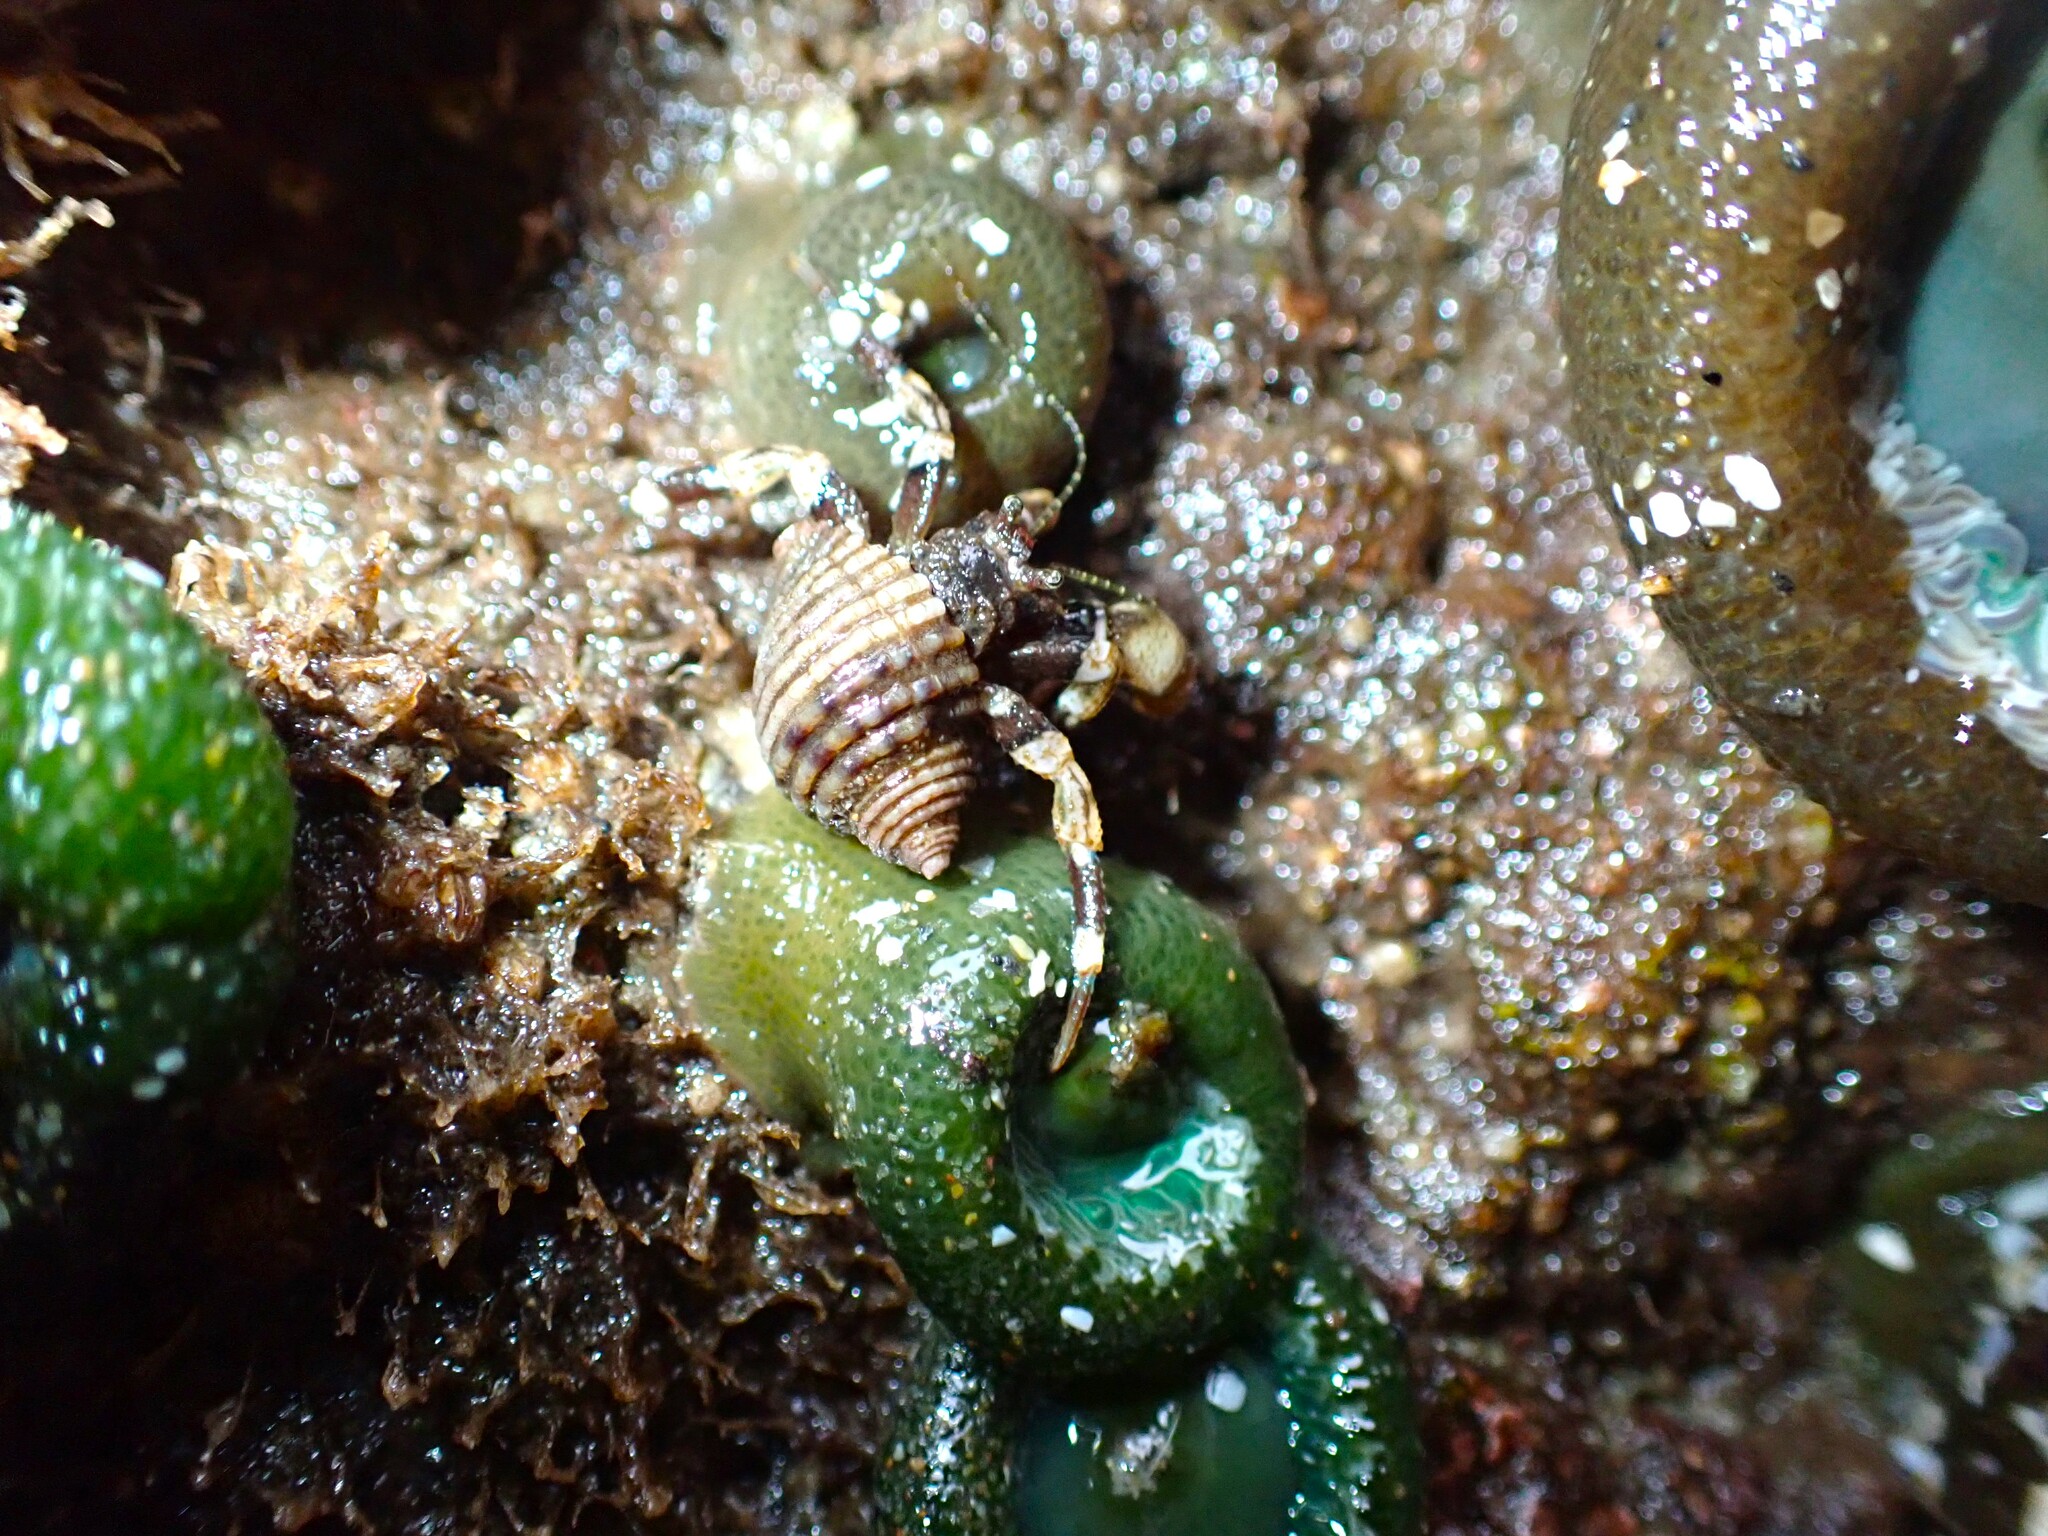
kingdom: Animalia
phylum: Arthropoda
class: Malacostraca
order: Decapoda
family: Paguridae
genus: Pagurus
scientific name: Pagurus hirsutiusculus
